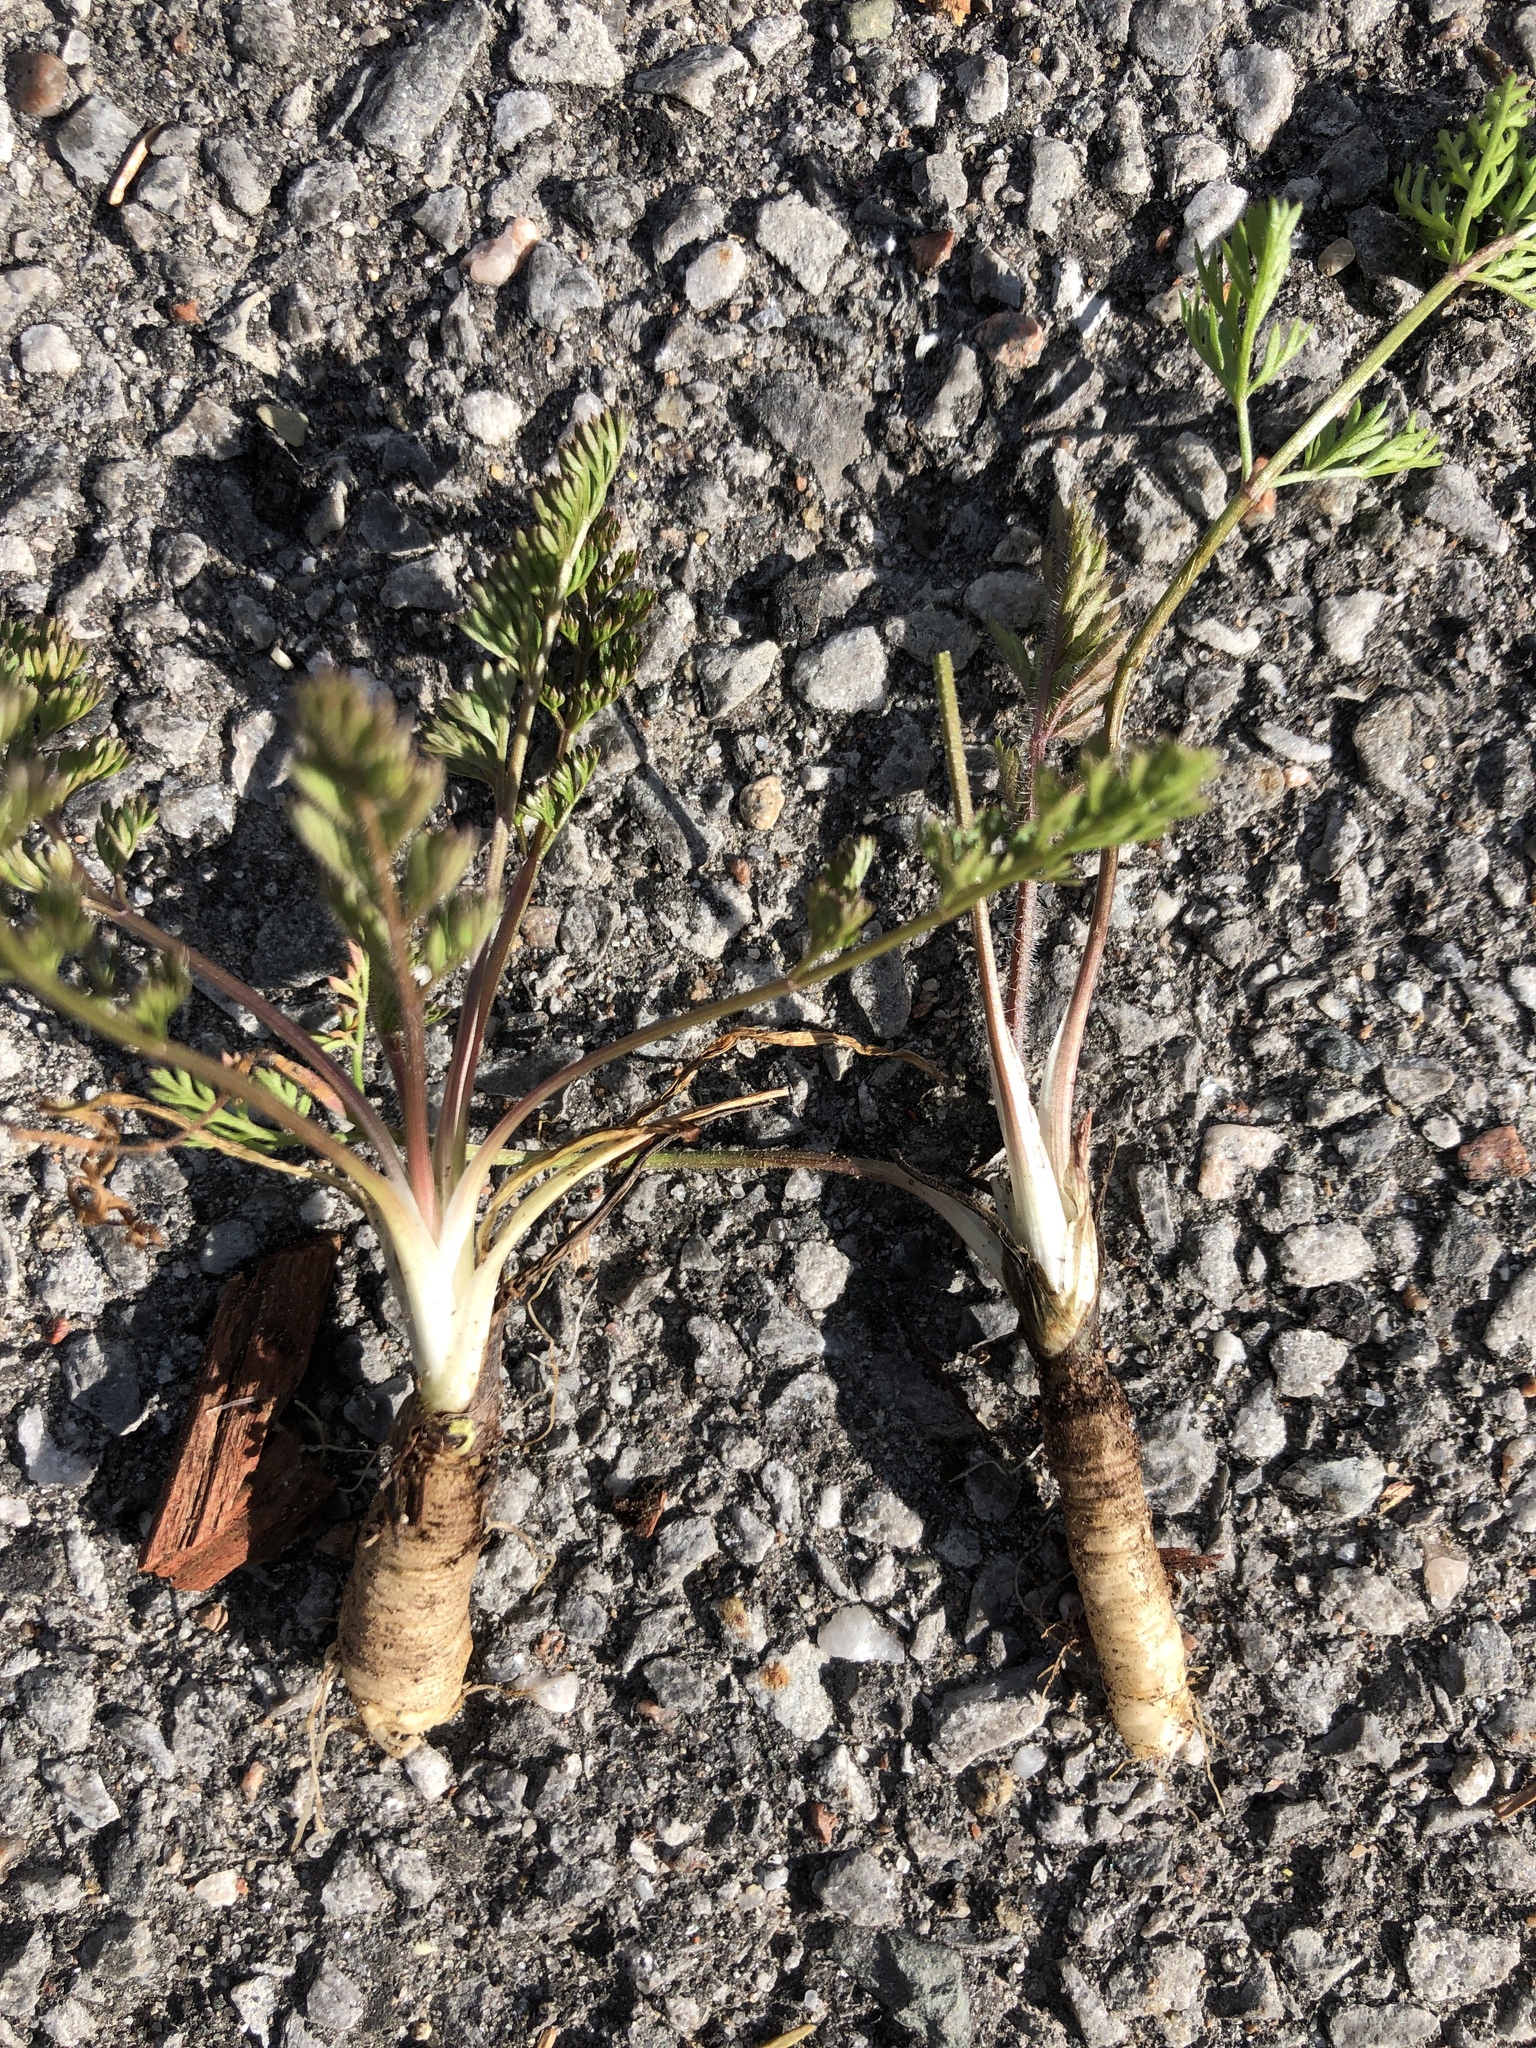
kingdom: Plantae
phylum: Tracheophyta
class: Magnoliopsida
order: Apiales
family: Apiaceae
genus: Daucus
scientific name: Daucus carota
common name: Wild carrot
